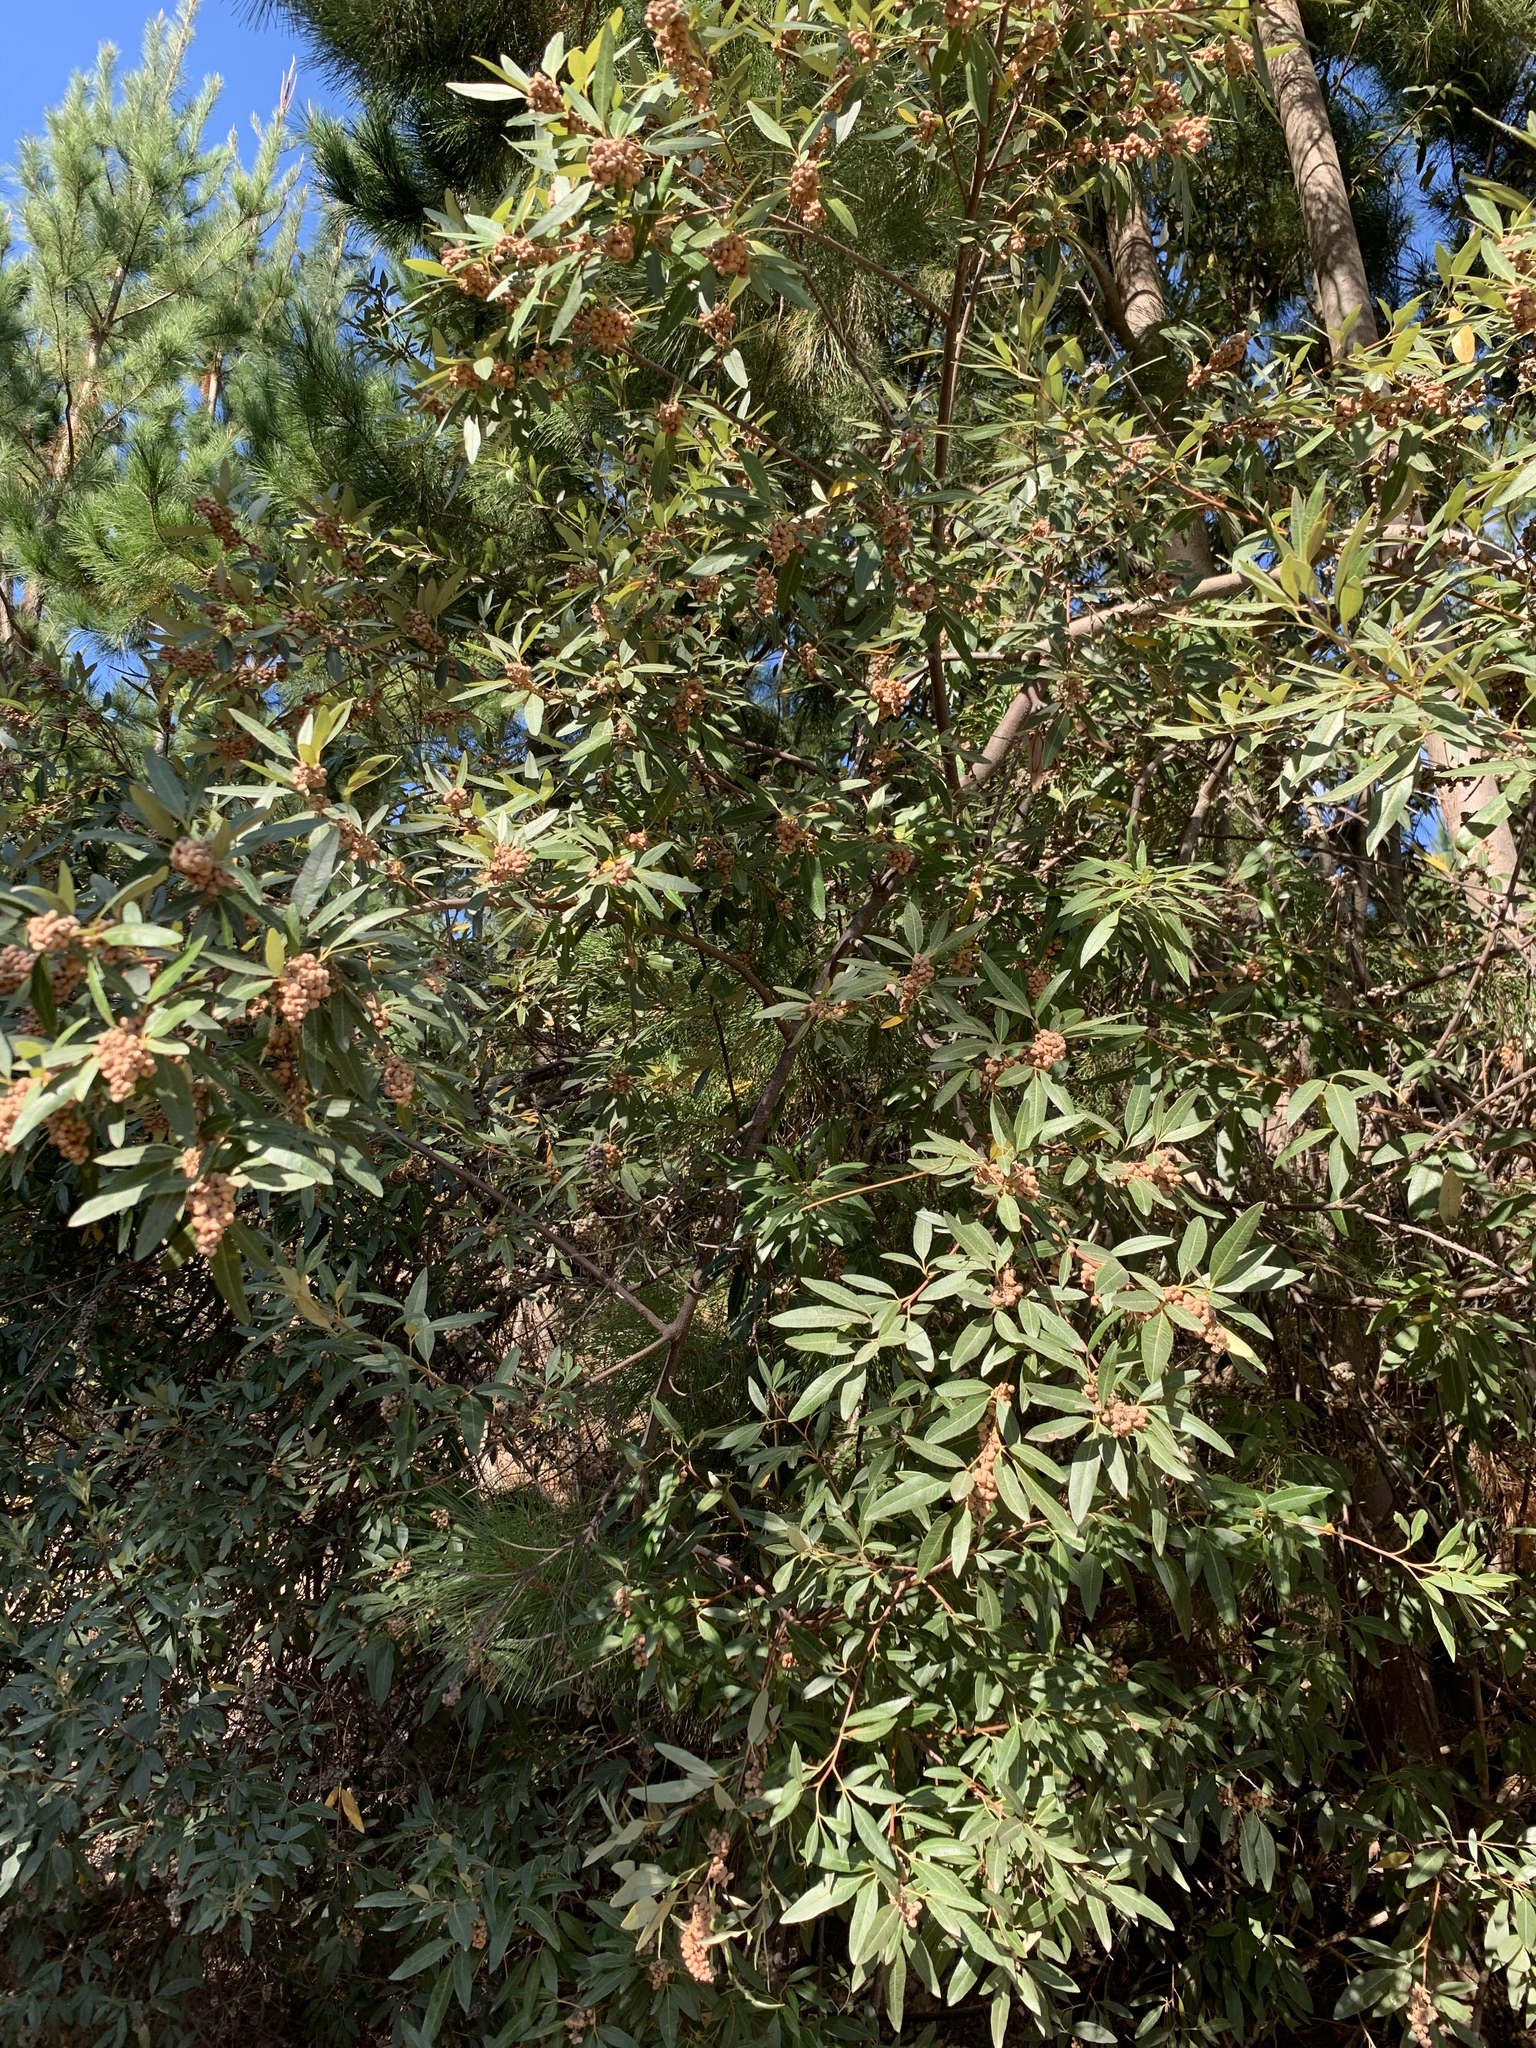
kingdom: Plantae
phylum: Tracheophyta
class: Magnoliopsida
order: Sapindales
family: Anacardiaceae
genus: Searsia
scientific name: Searsia angustifolia
